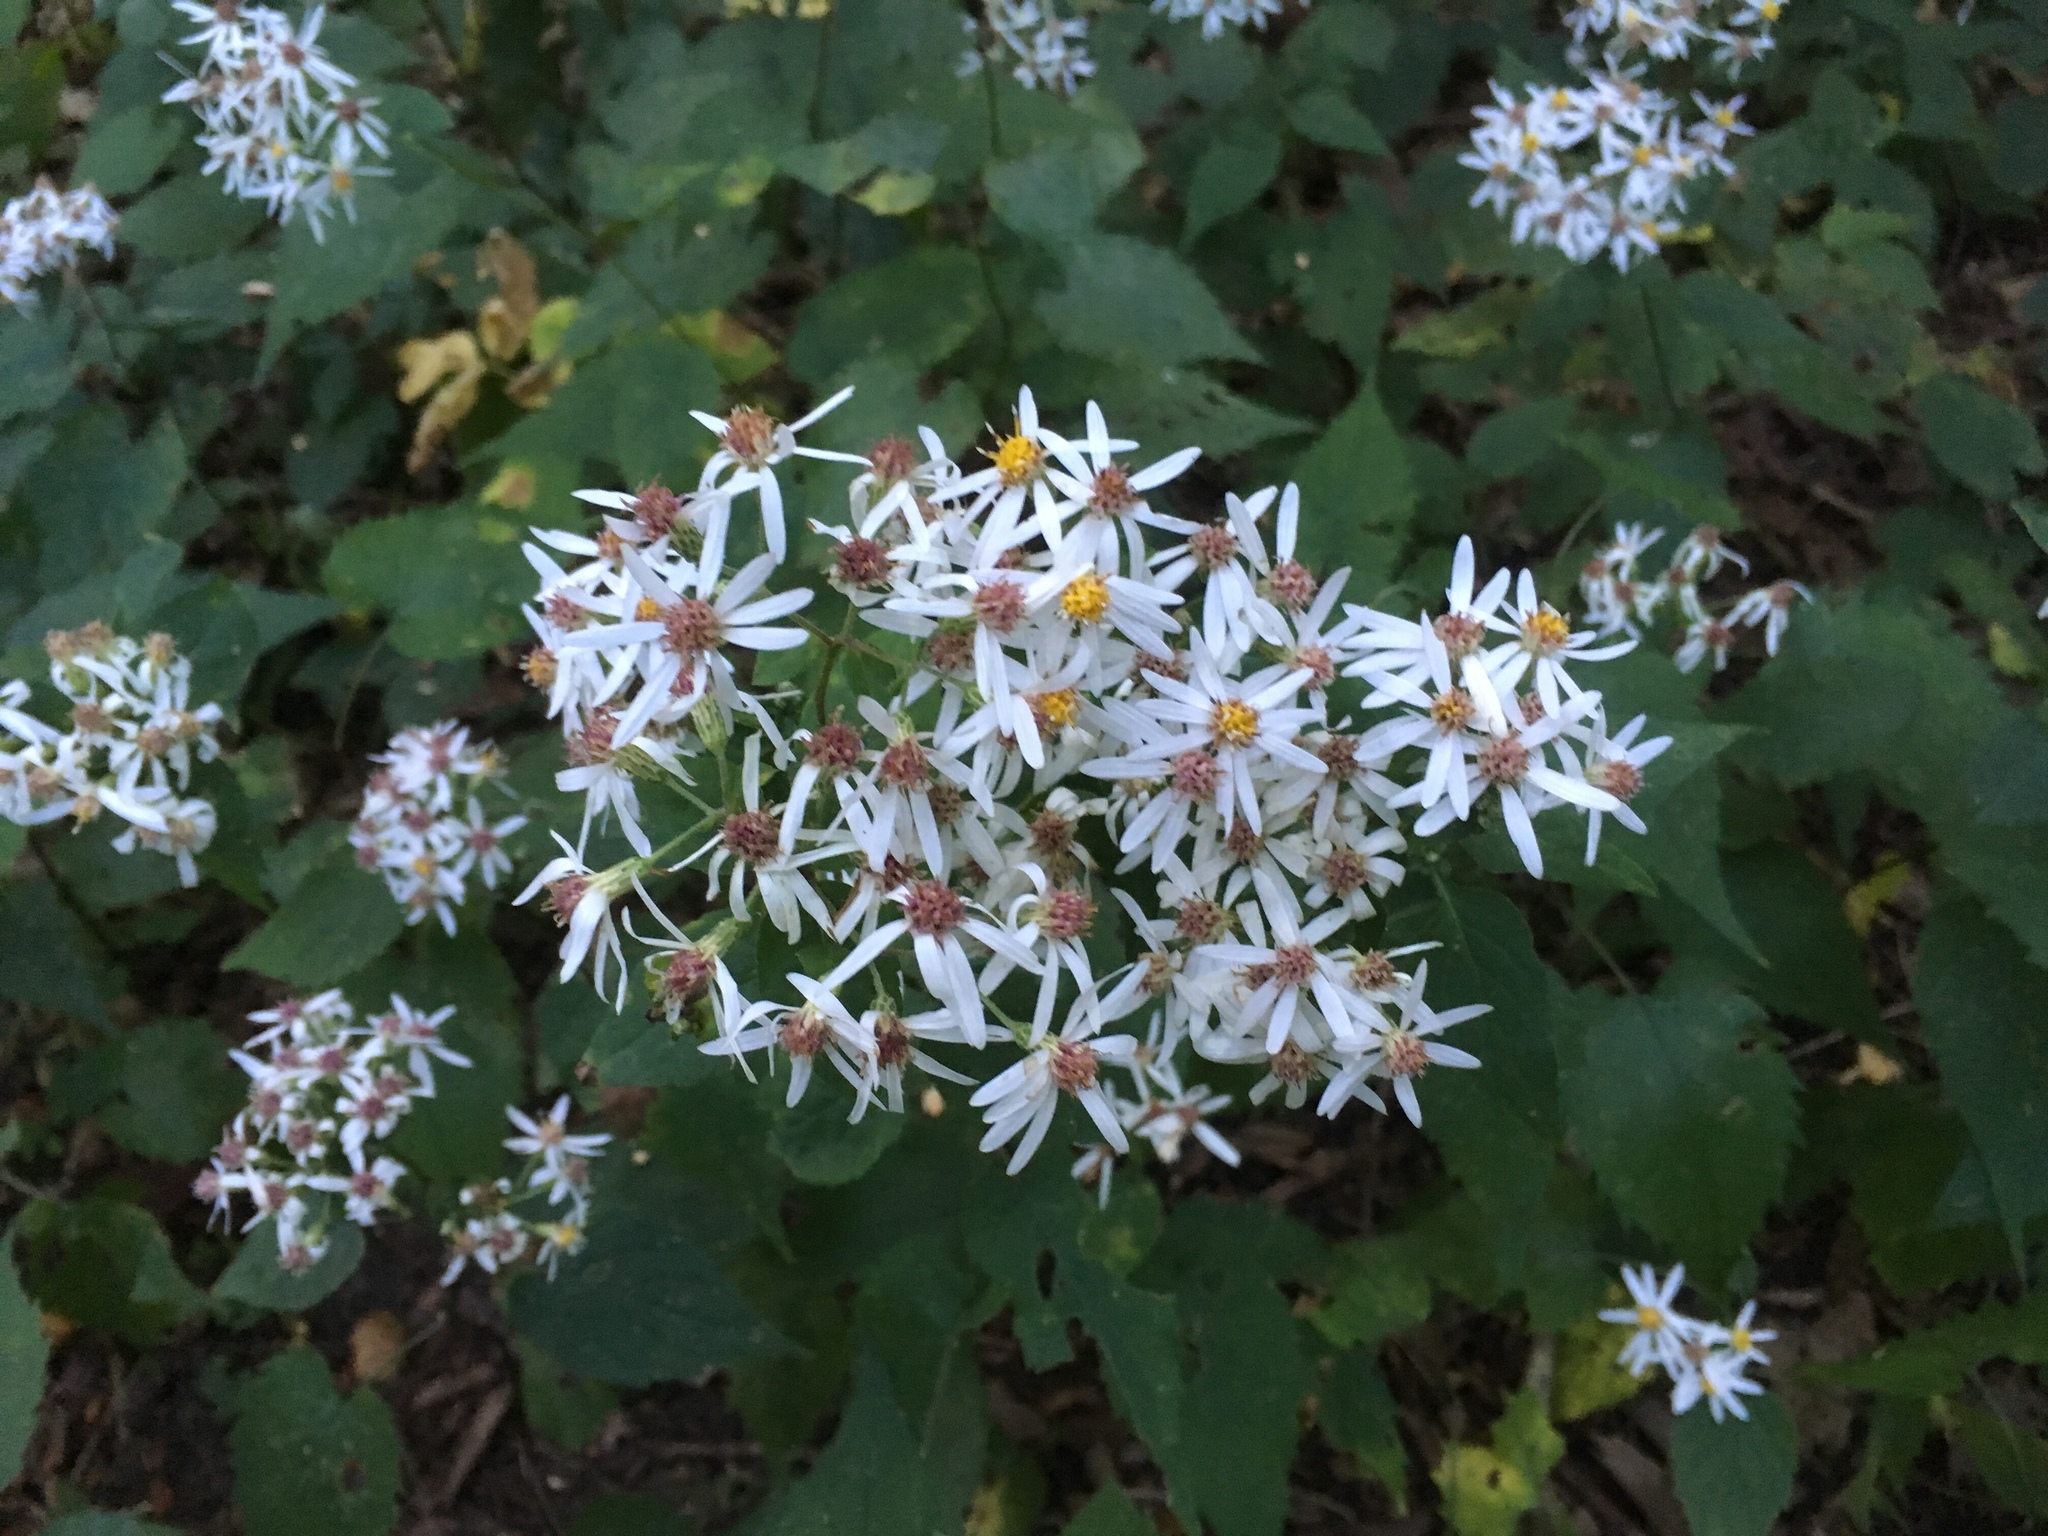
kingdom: Plantae
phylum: Tracheophyta
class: Magnoliopsida
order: Asterales
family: Asteraceae
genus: Eurybia
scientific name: Eurybia divaricata
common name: White wood aster
